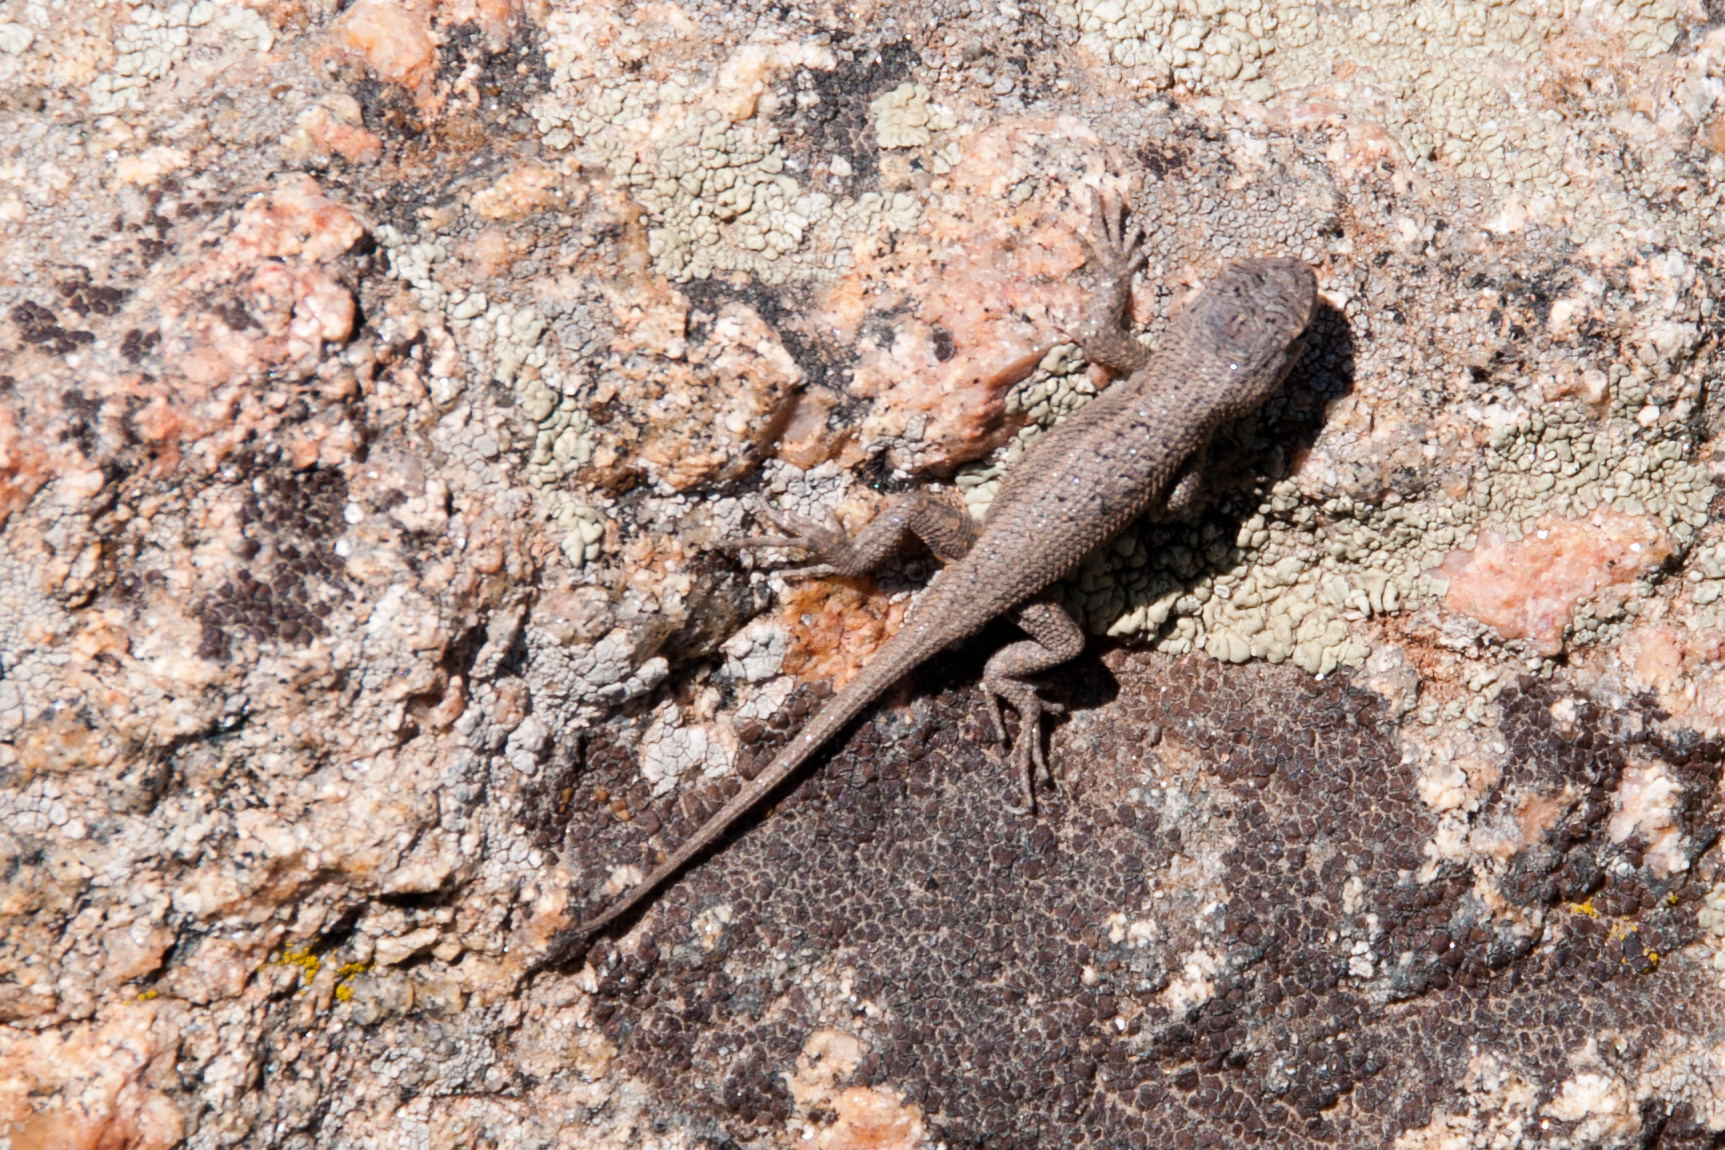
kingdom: Animalia
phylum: Chordata
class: Squamata
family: Phrynosomatidae
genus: Sceloporus
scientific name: Sceloporus tristichus
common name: Plateau fence lizard
